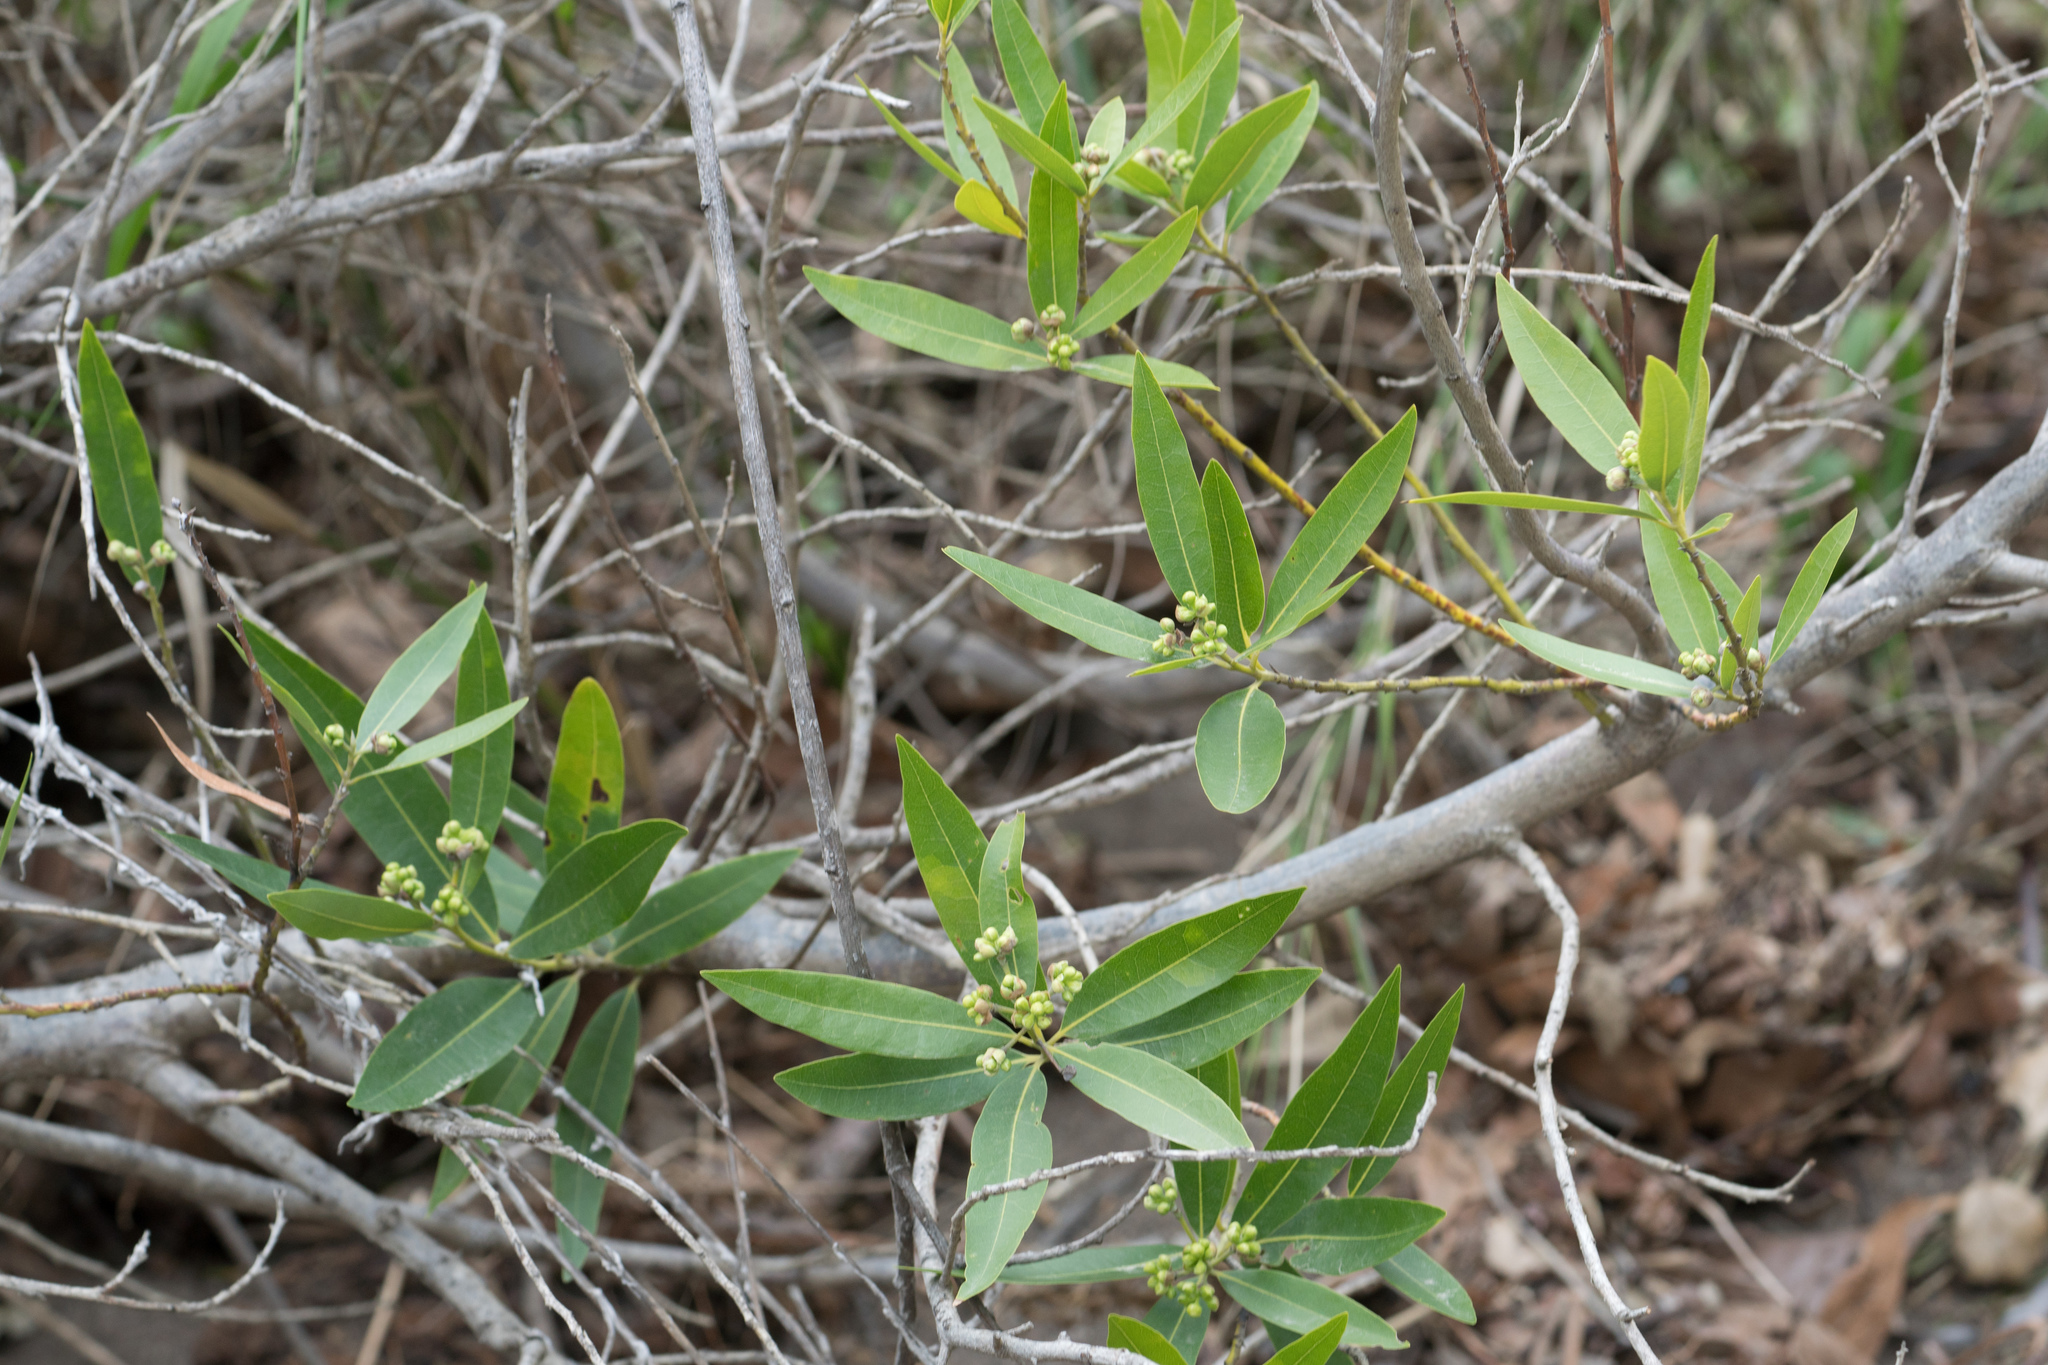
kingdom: Plantae
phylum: Tracheophyta
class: Magnoliopsida
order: Laurales
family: Lauraceae
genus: Umbellularia
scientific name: Umbellularia californica
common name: California bay
